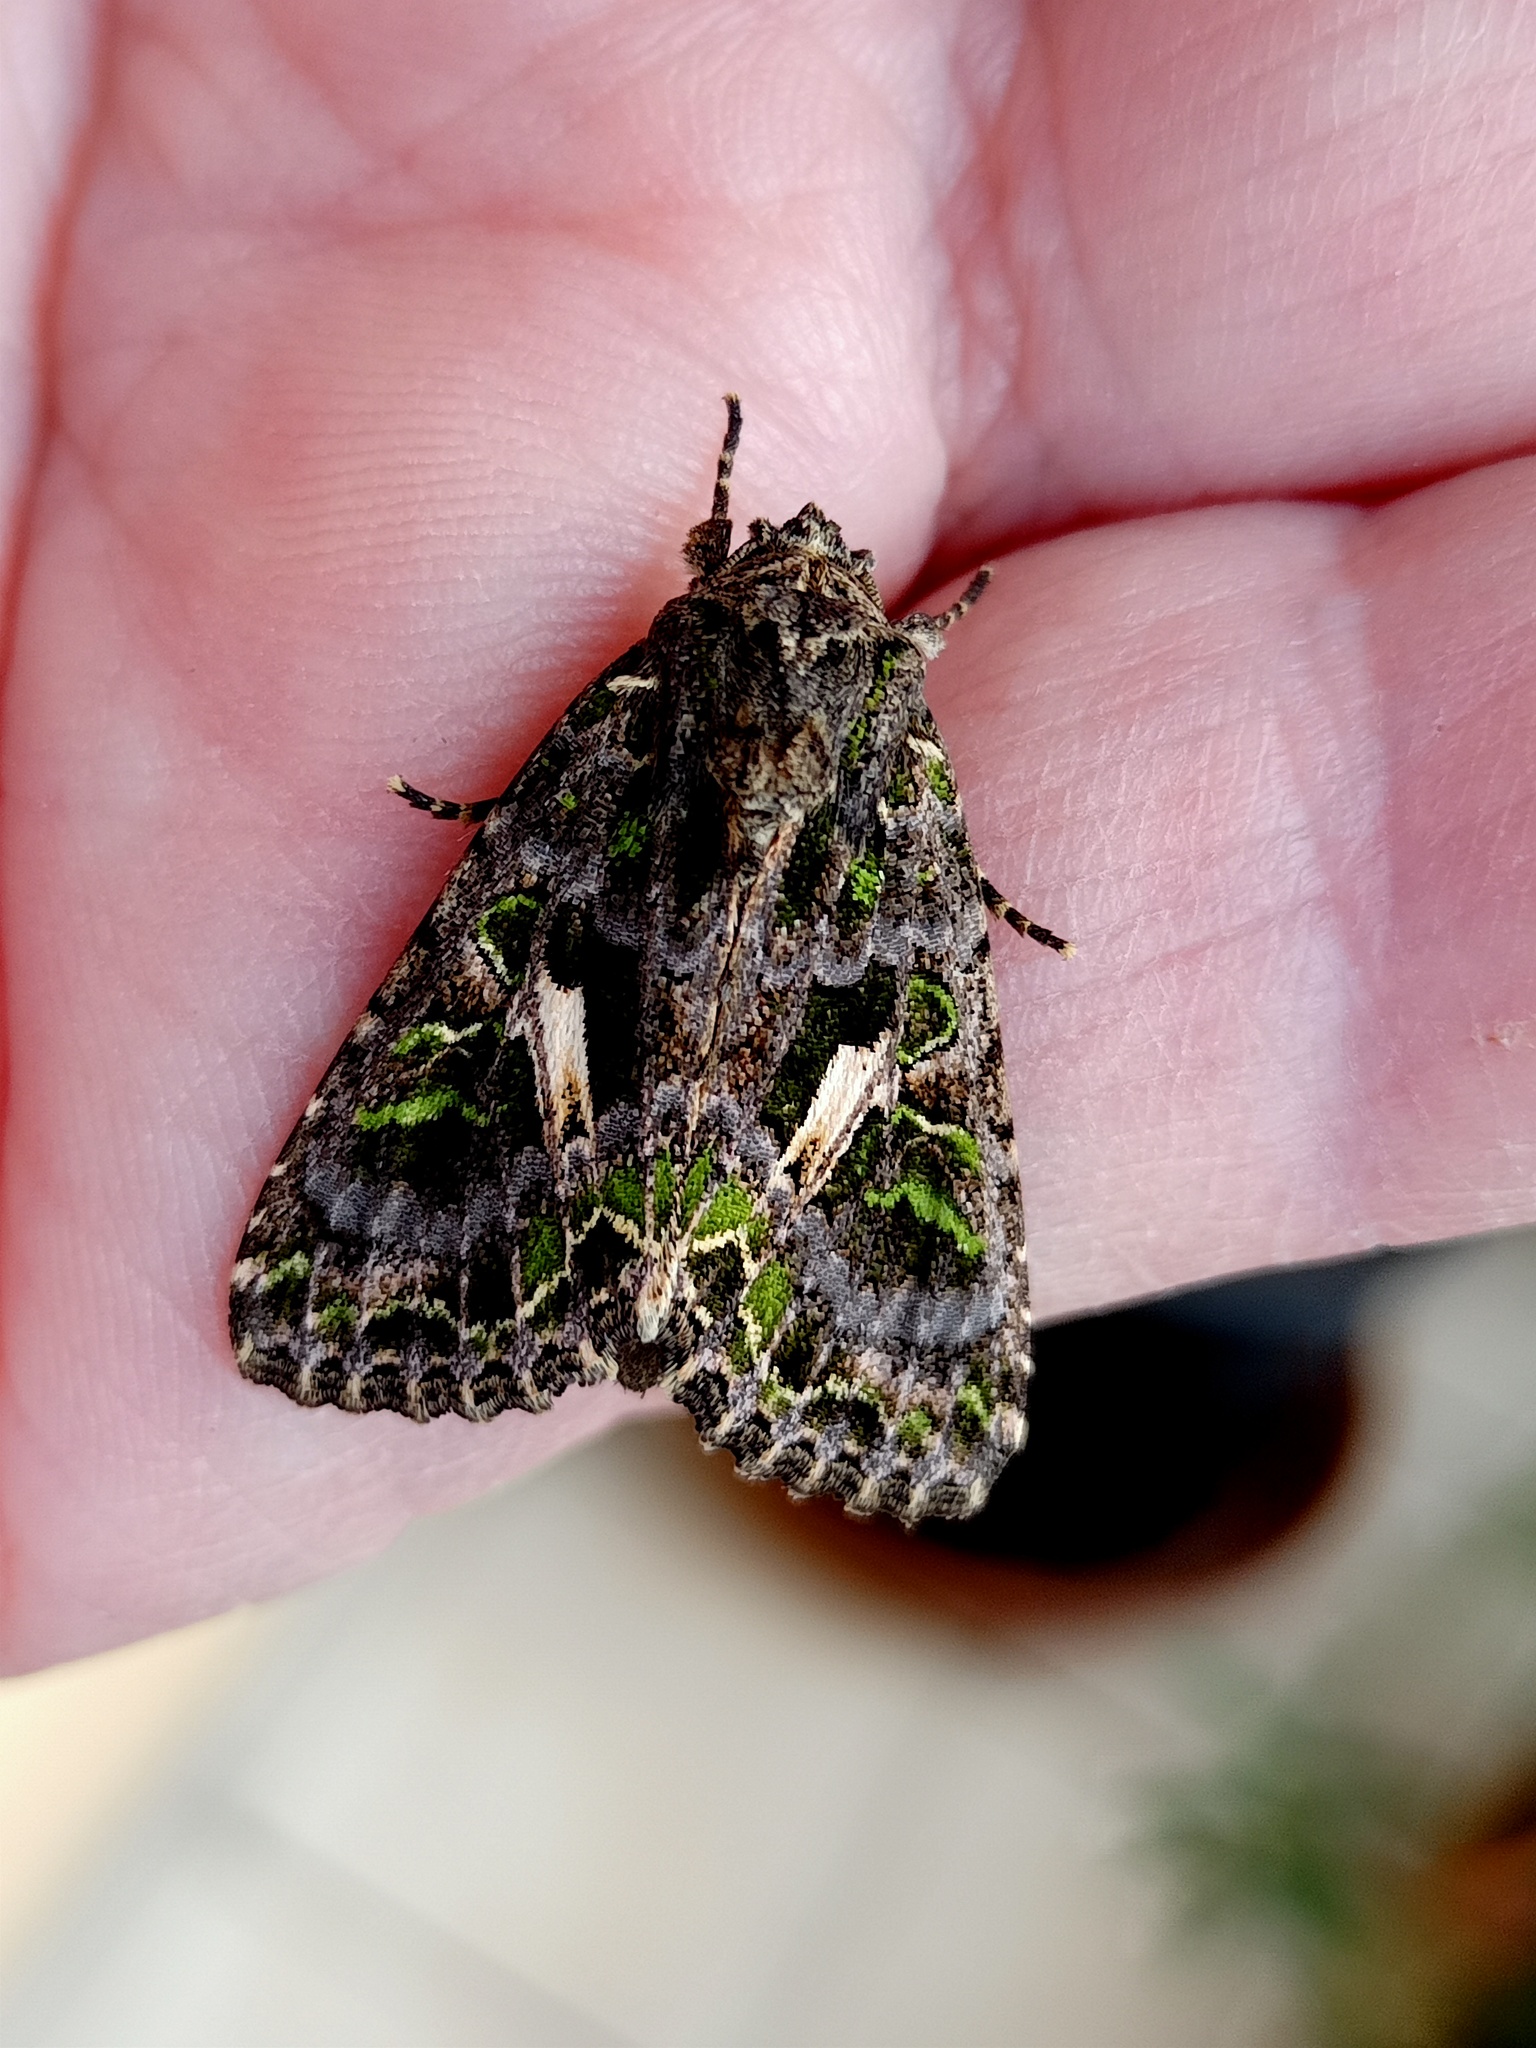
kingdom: Animalia
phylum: Arthropoda
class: Insecta
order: Lepidoptera
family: Noctuidae
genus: Trachea
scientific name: Trachea atriplicis
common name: Orache moth
